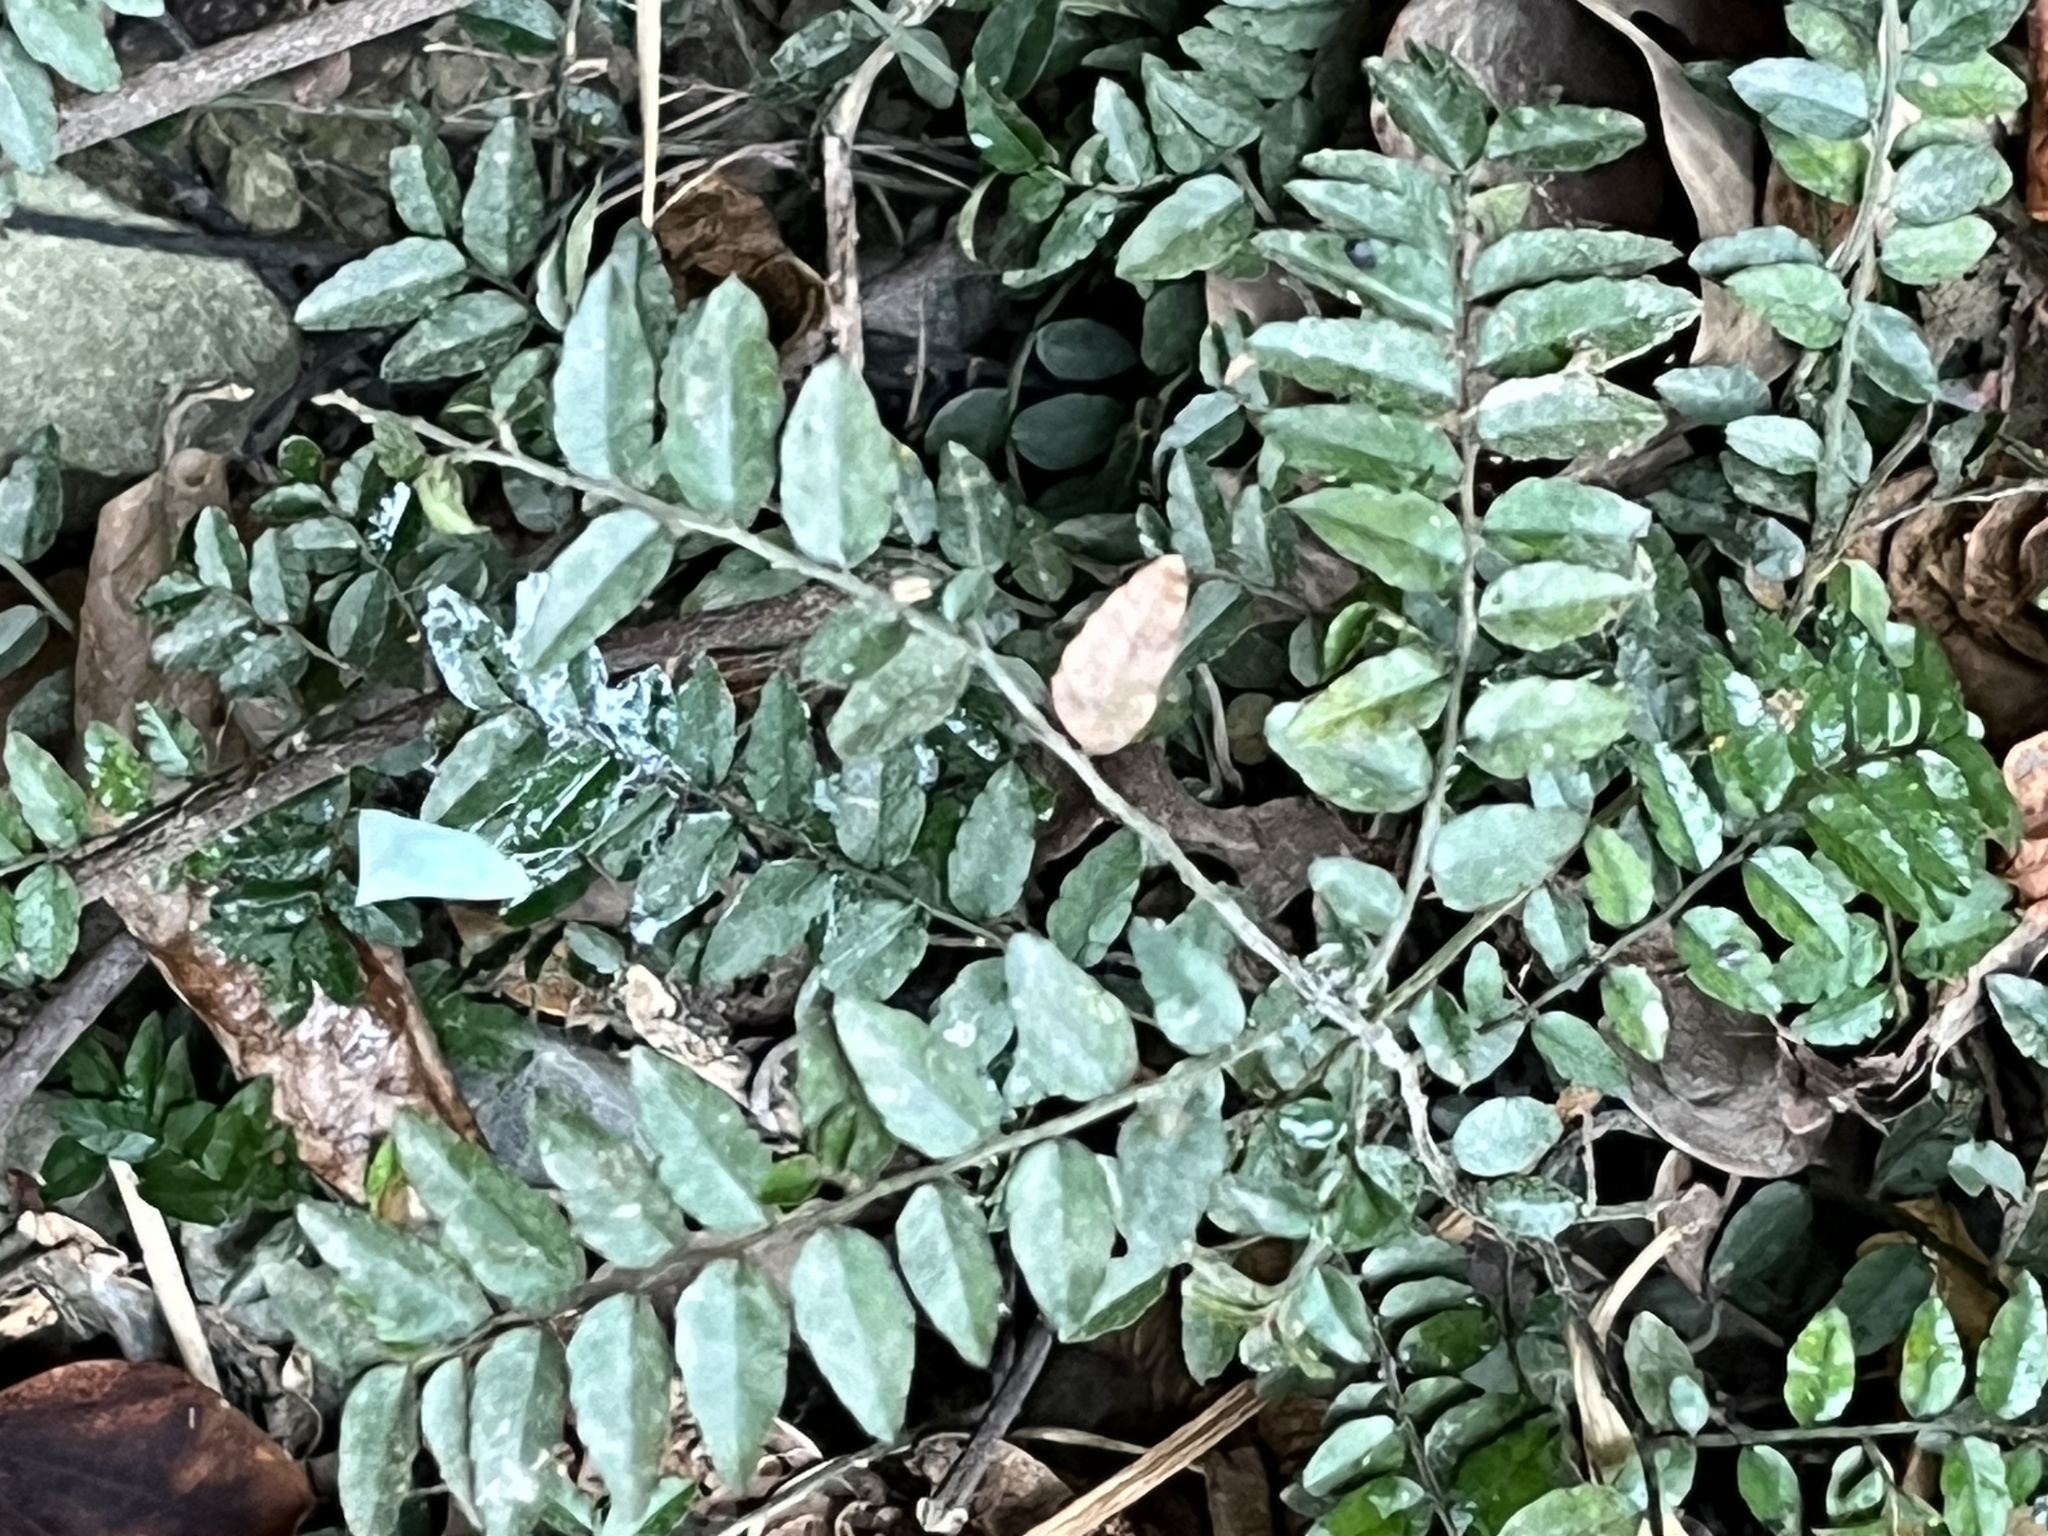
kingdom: Plantae
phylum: Tracheophyta
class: Magnoliopsida
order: Rosales
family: Rhamnaceae
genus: Ventilago
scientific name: Ventilago elegans
